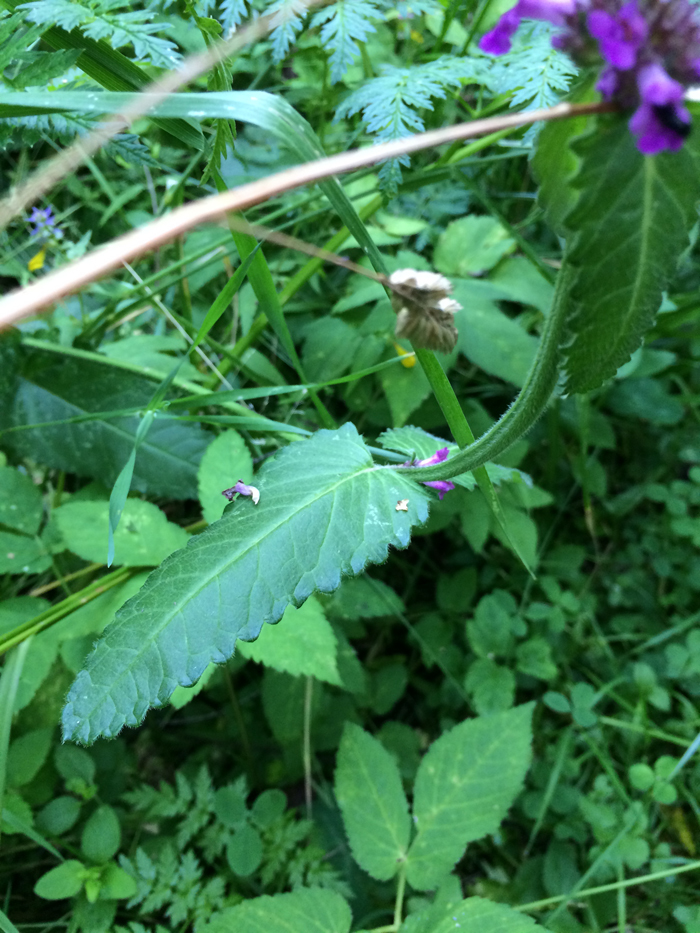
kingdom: Plantae
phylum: Tracheophyta
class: Magnoliopsida
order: Lamiales
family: Lamiaceae
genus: Betonica
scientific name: Betonica officinalis
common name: Bishop's-wort
